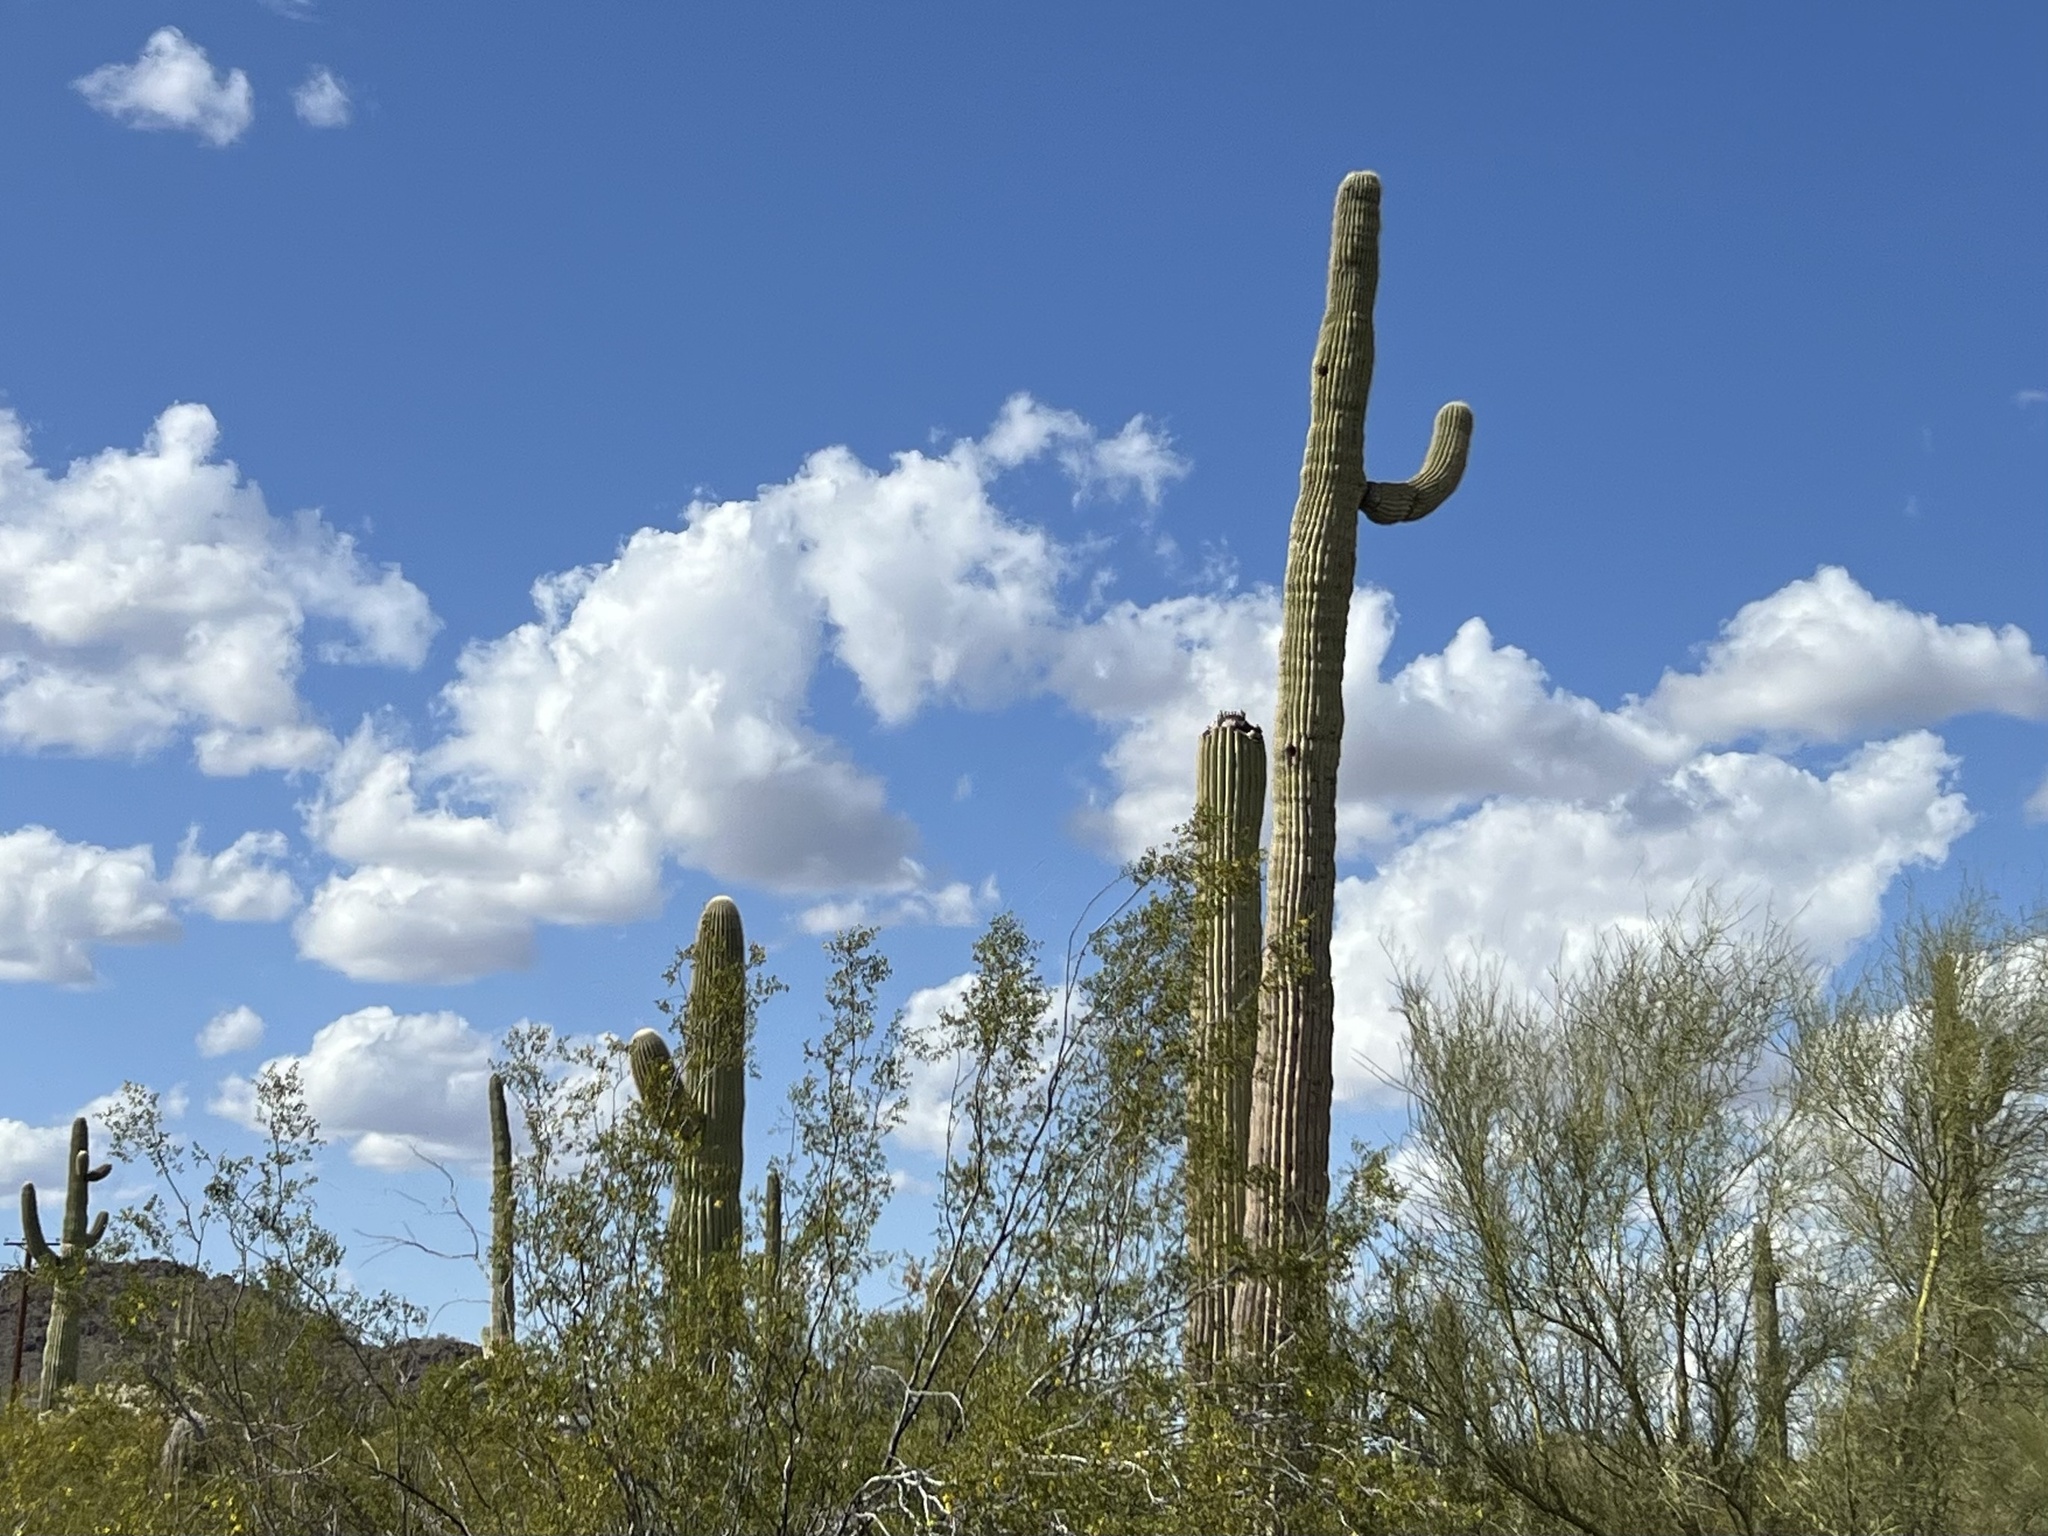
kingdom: Plantae
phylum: Tracheophyta
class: Magnoliopsida
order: Caryophyllales
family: Cactaceae
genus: Carnegiea
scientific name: Carnegiea gigantea
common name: Saguaro
